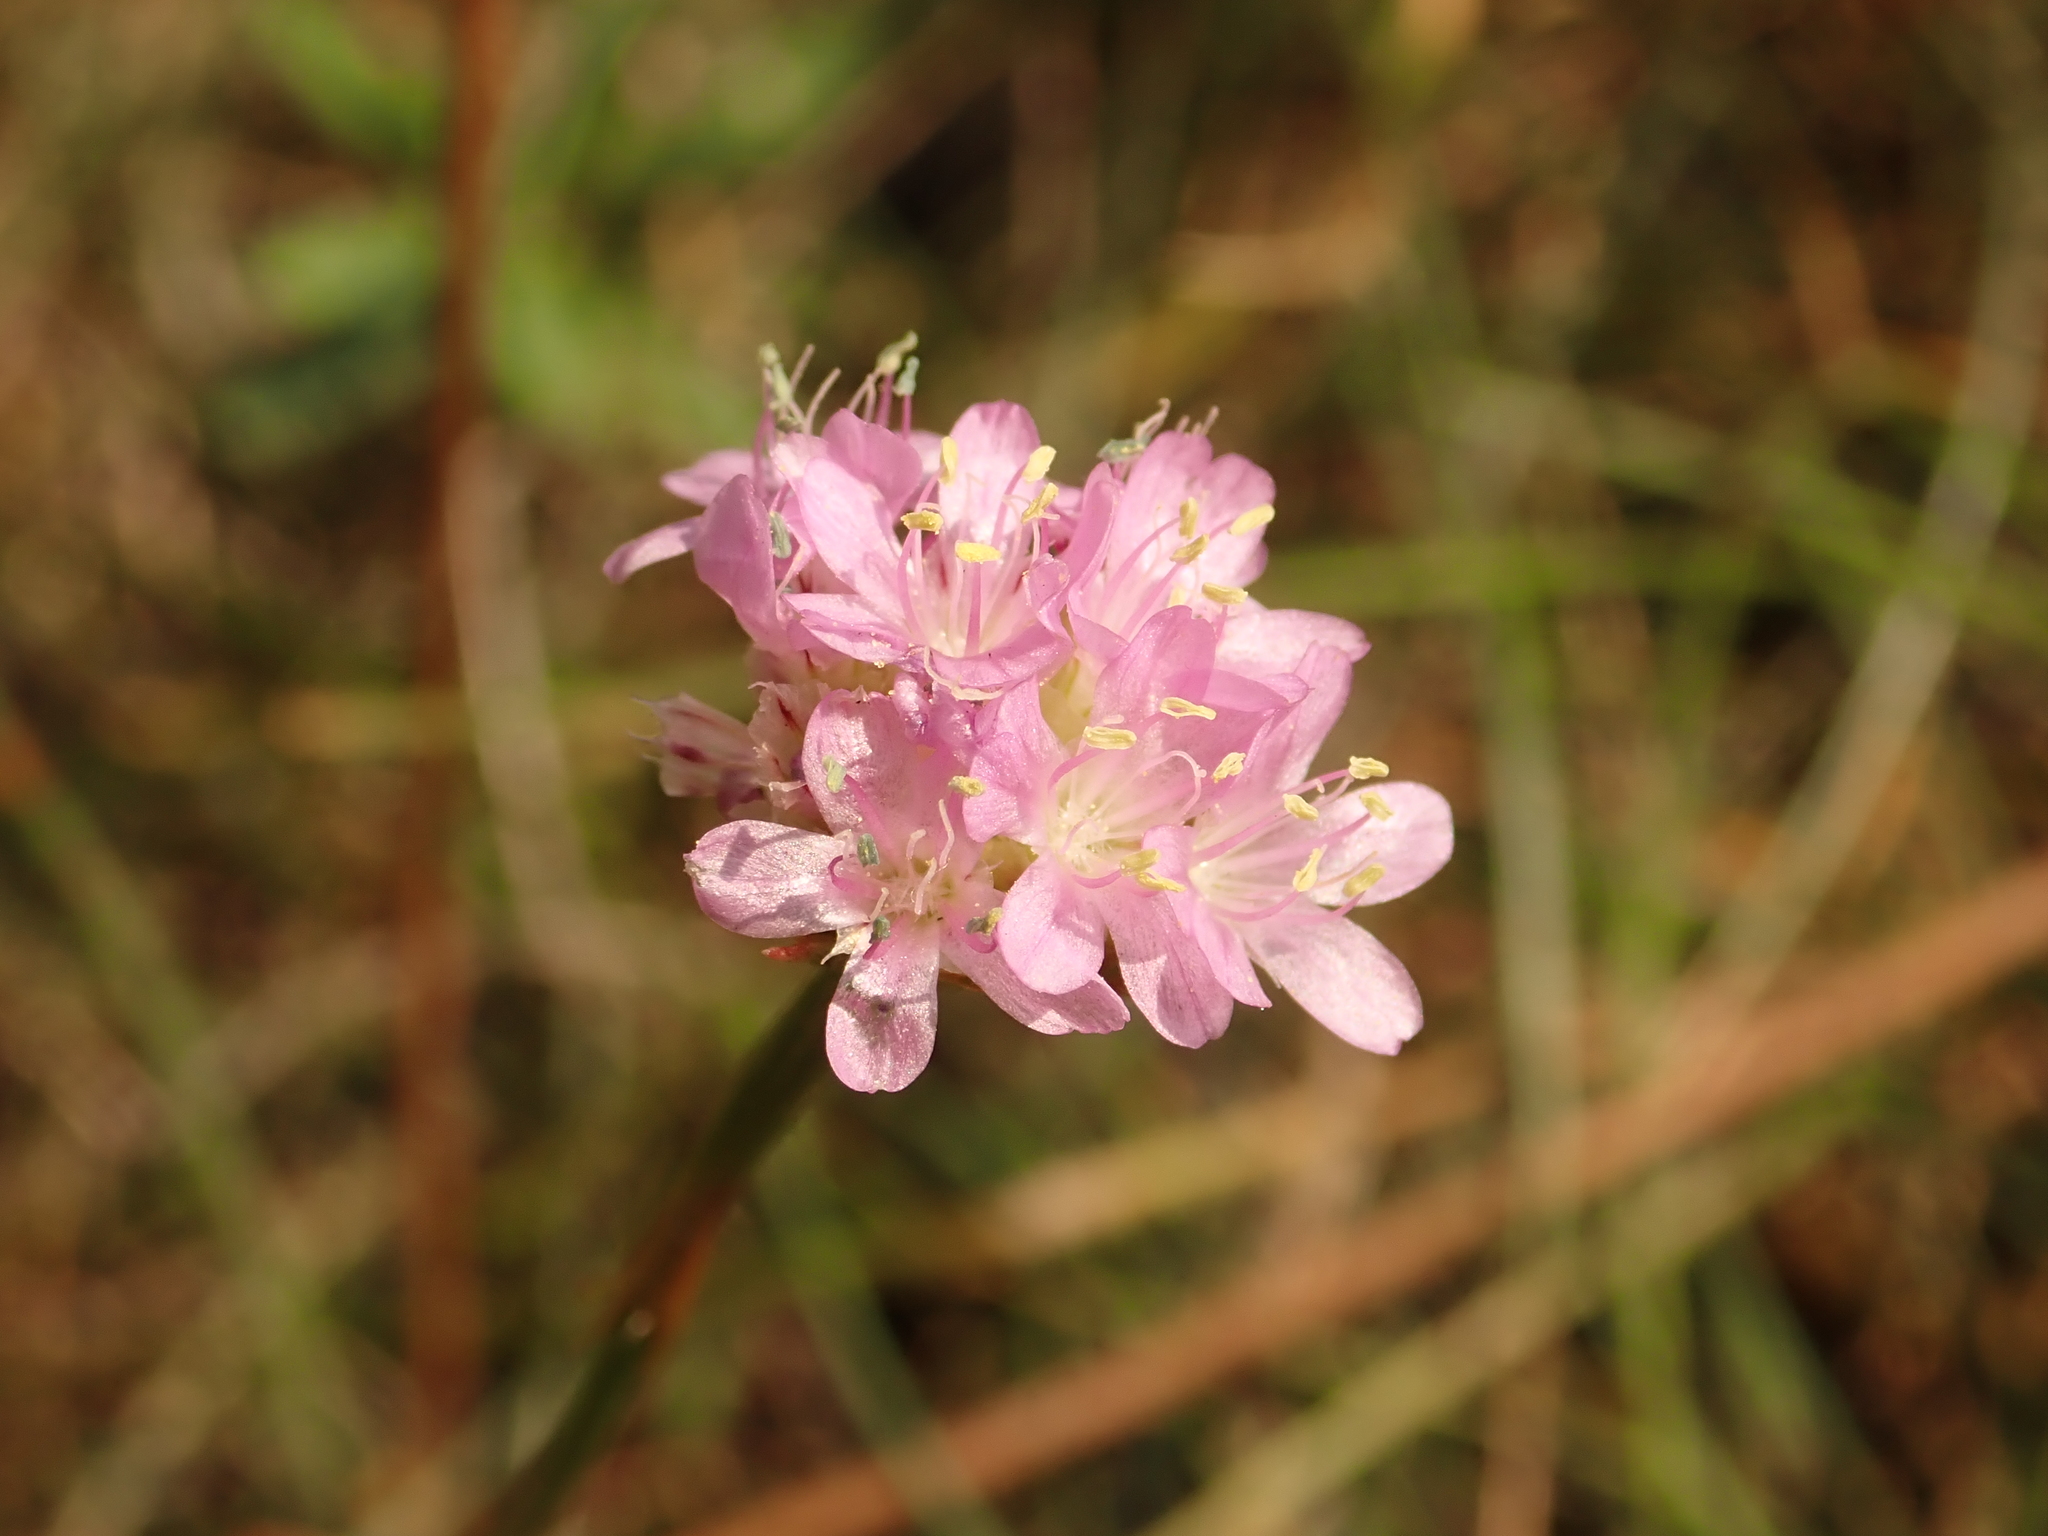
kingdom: Plantae
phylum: Tracheophyta
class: Magnoliopsida
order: Caryophyllales
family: Plumbaginaceae
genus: Armeria
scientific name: Armeria maritima
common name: Thrift
